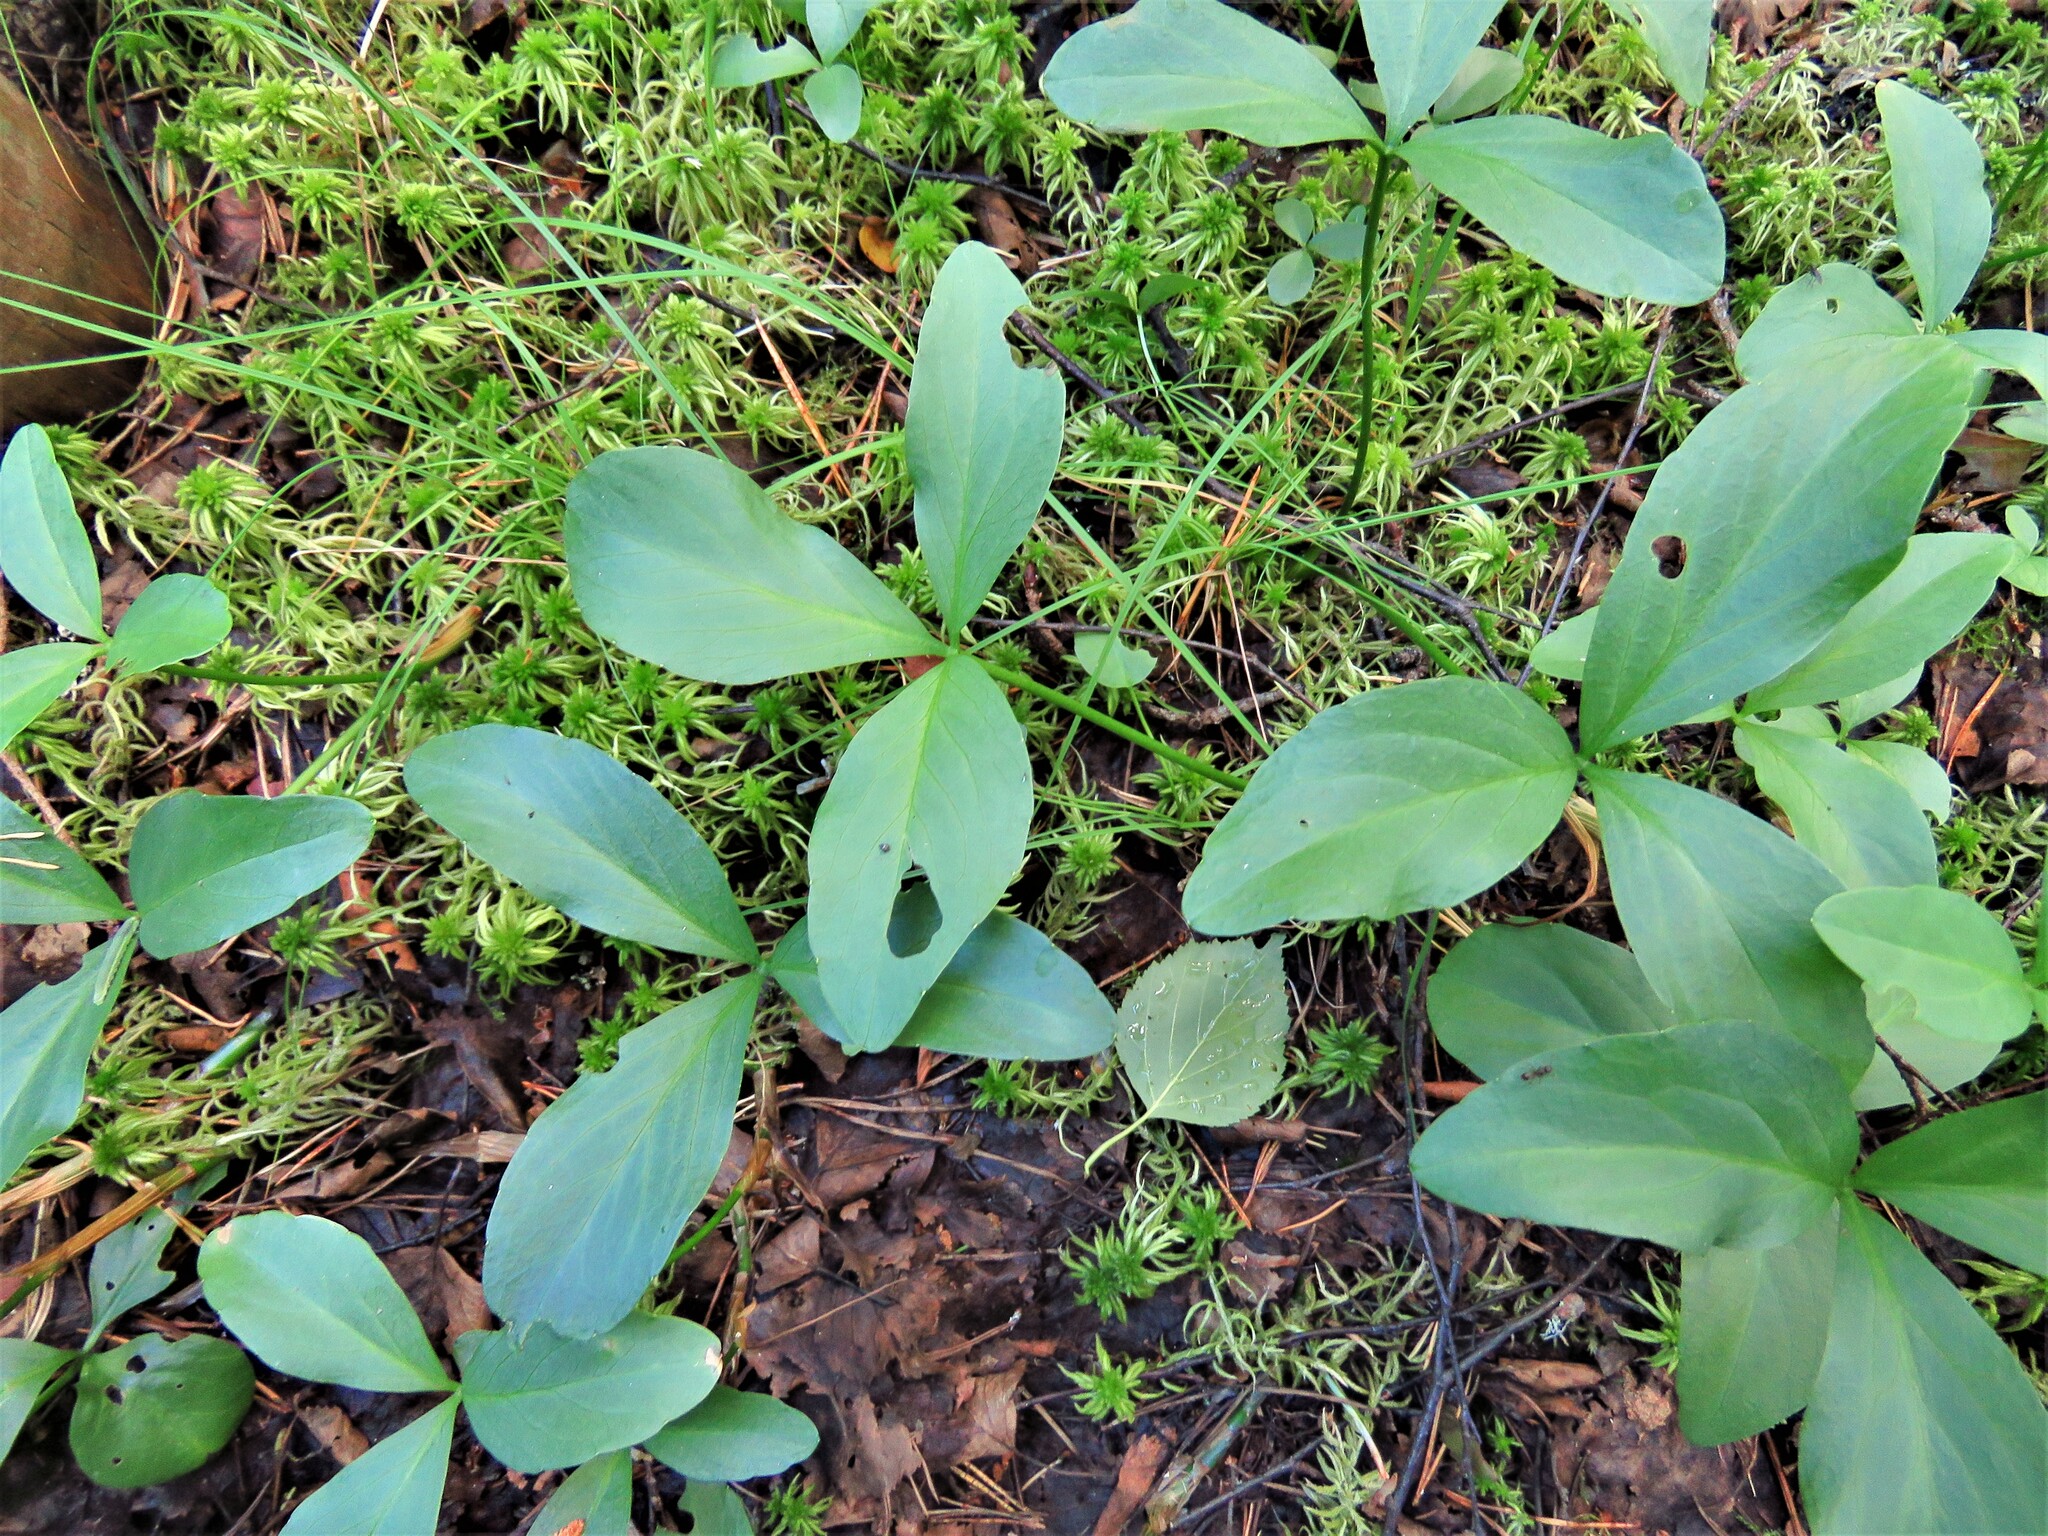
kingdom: Plantae
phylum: Tracheophyta
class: Magnoliopsida
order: Asterales
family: Menyanthaceae
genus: Menyanthes
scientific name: Menyanthes trifoliata
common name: Bogbean
